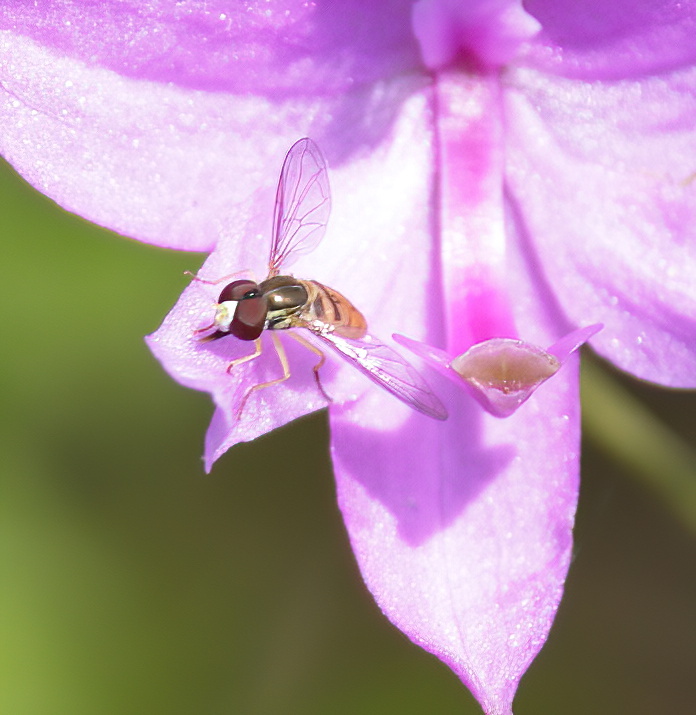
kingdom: Animalia
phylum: Arthropoda
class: Insecta
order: Diptera
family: Syrphidae
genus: Toxomerus
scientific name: Toxomerus marginatus
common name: Syrphid fly
